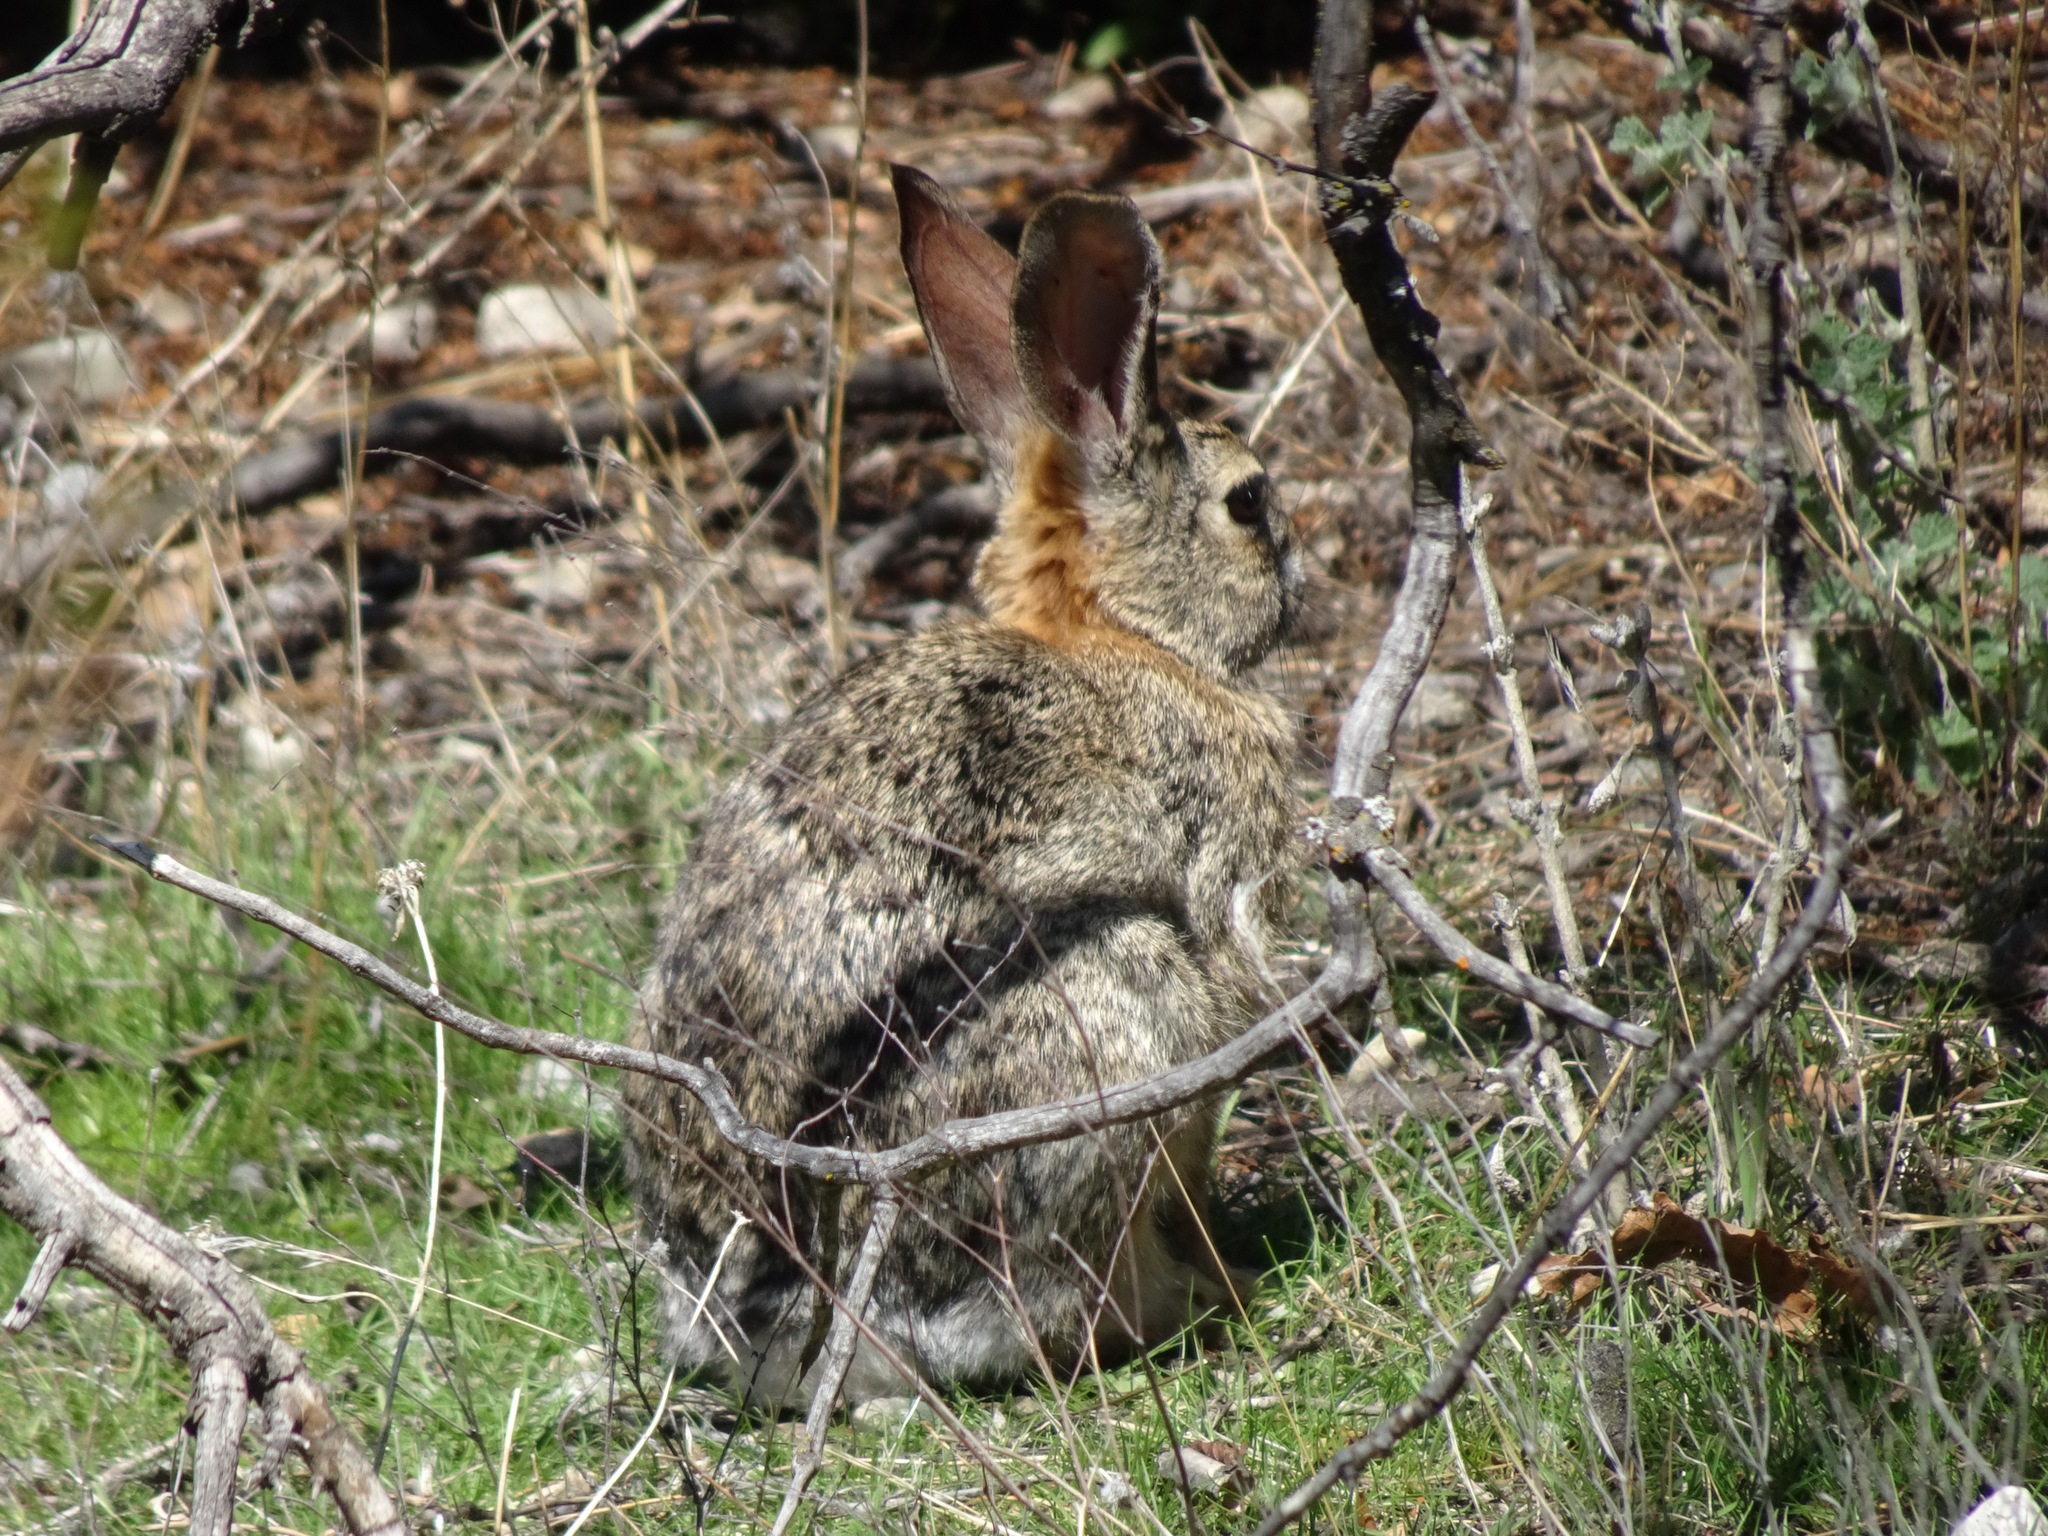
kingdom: Animalia
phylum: Chordata
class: Mammalia
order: Lagomorpha
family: Leporidae
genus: Sylvilagus
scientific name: Sylvilagus audubonii
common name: Desert cottontail
